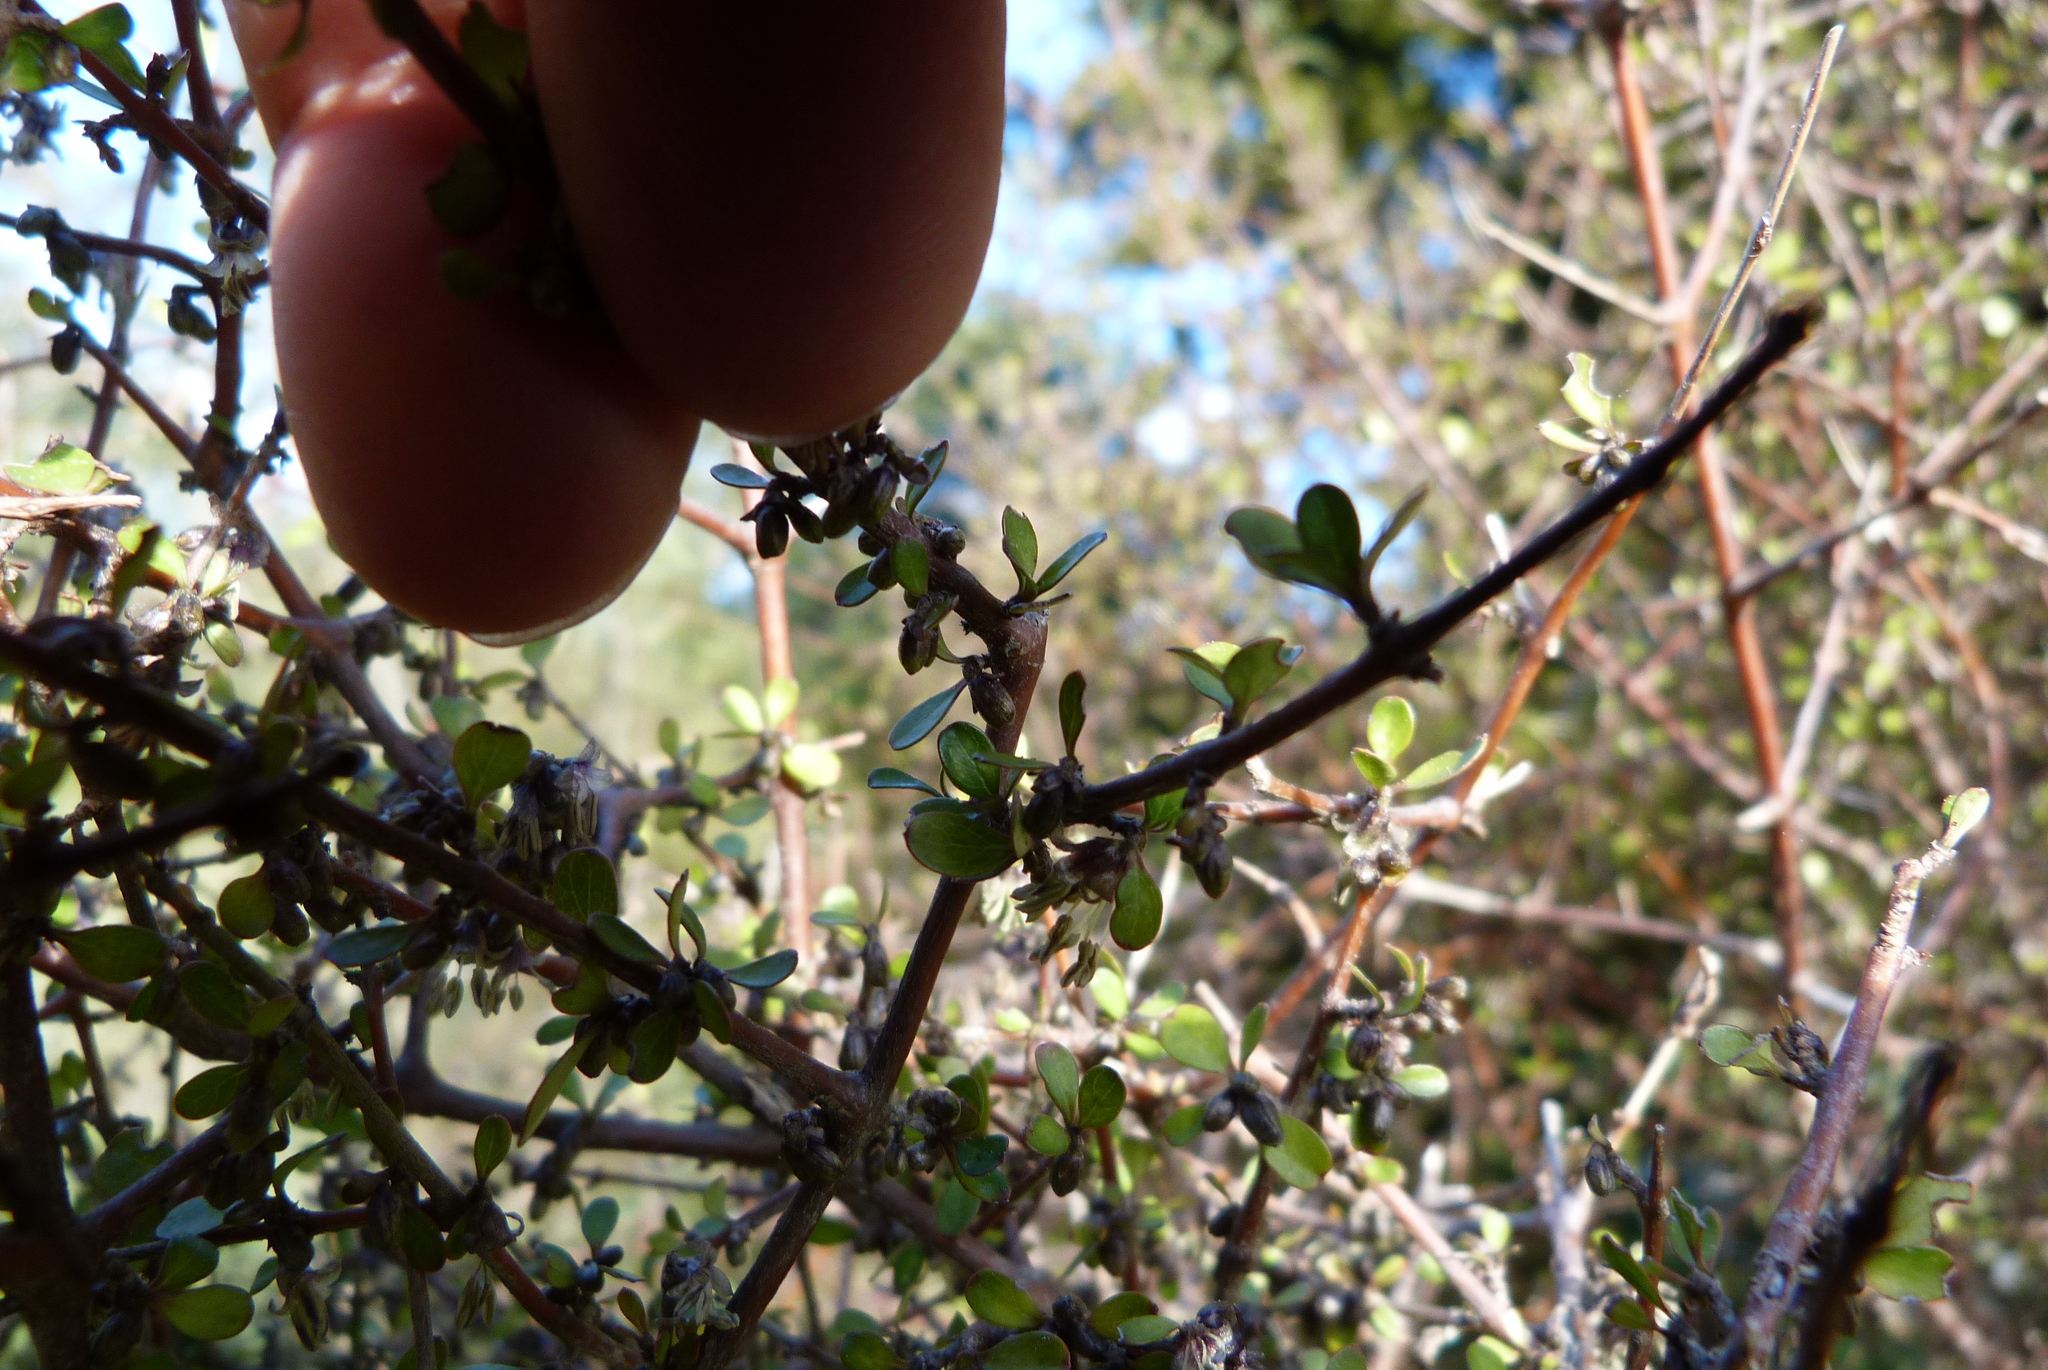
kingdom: Plantae
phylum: Tracheophyta
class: Magnoliopsida
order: Gentianales
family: Rubiaceae
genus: Coprosma
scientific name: Coprosma rigida
